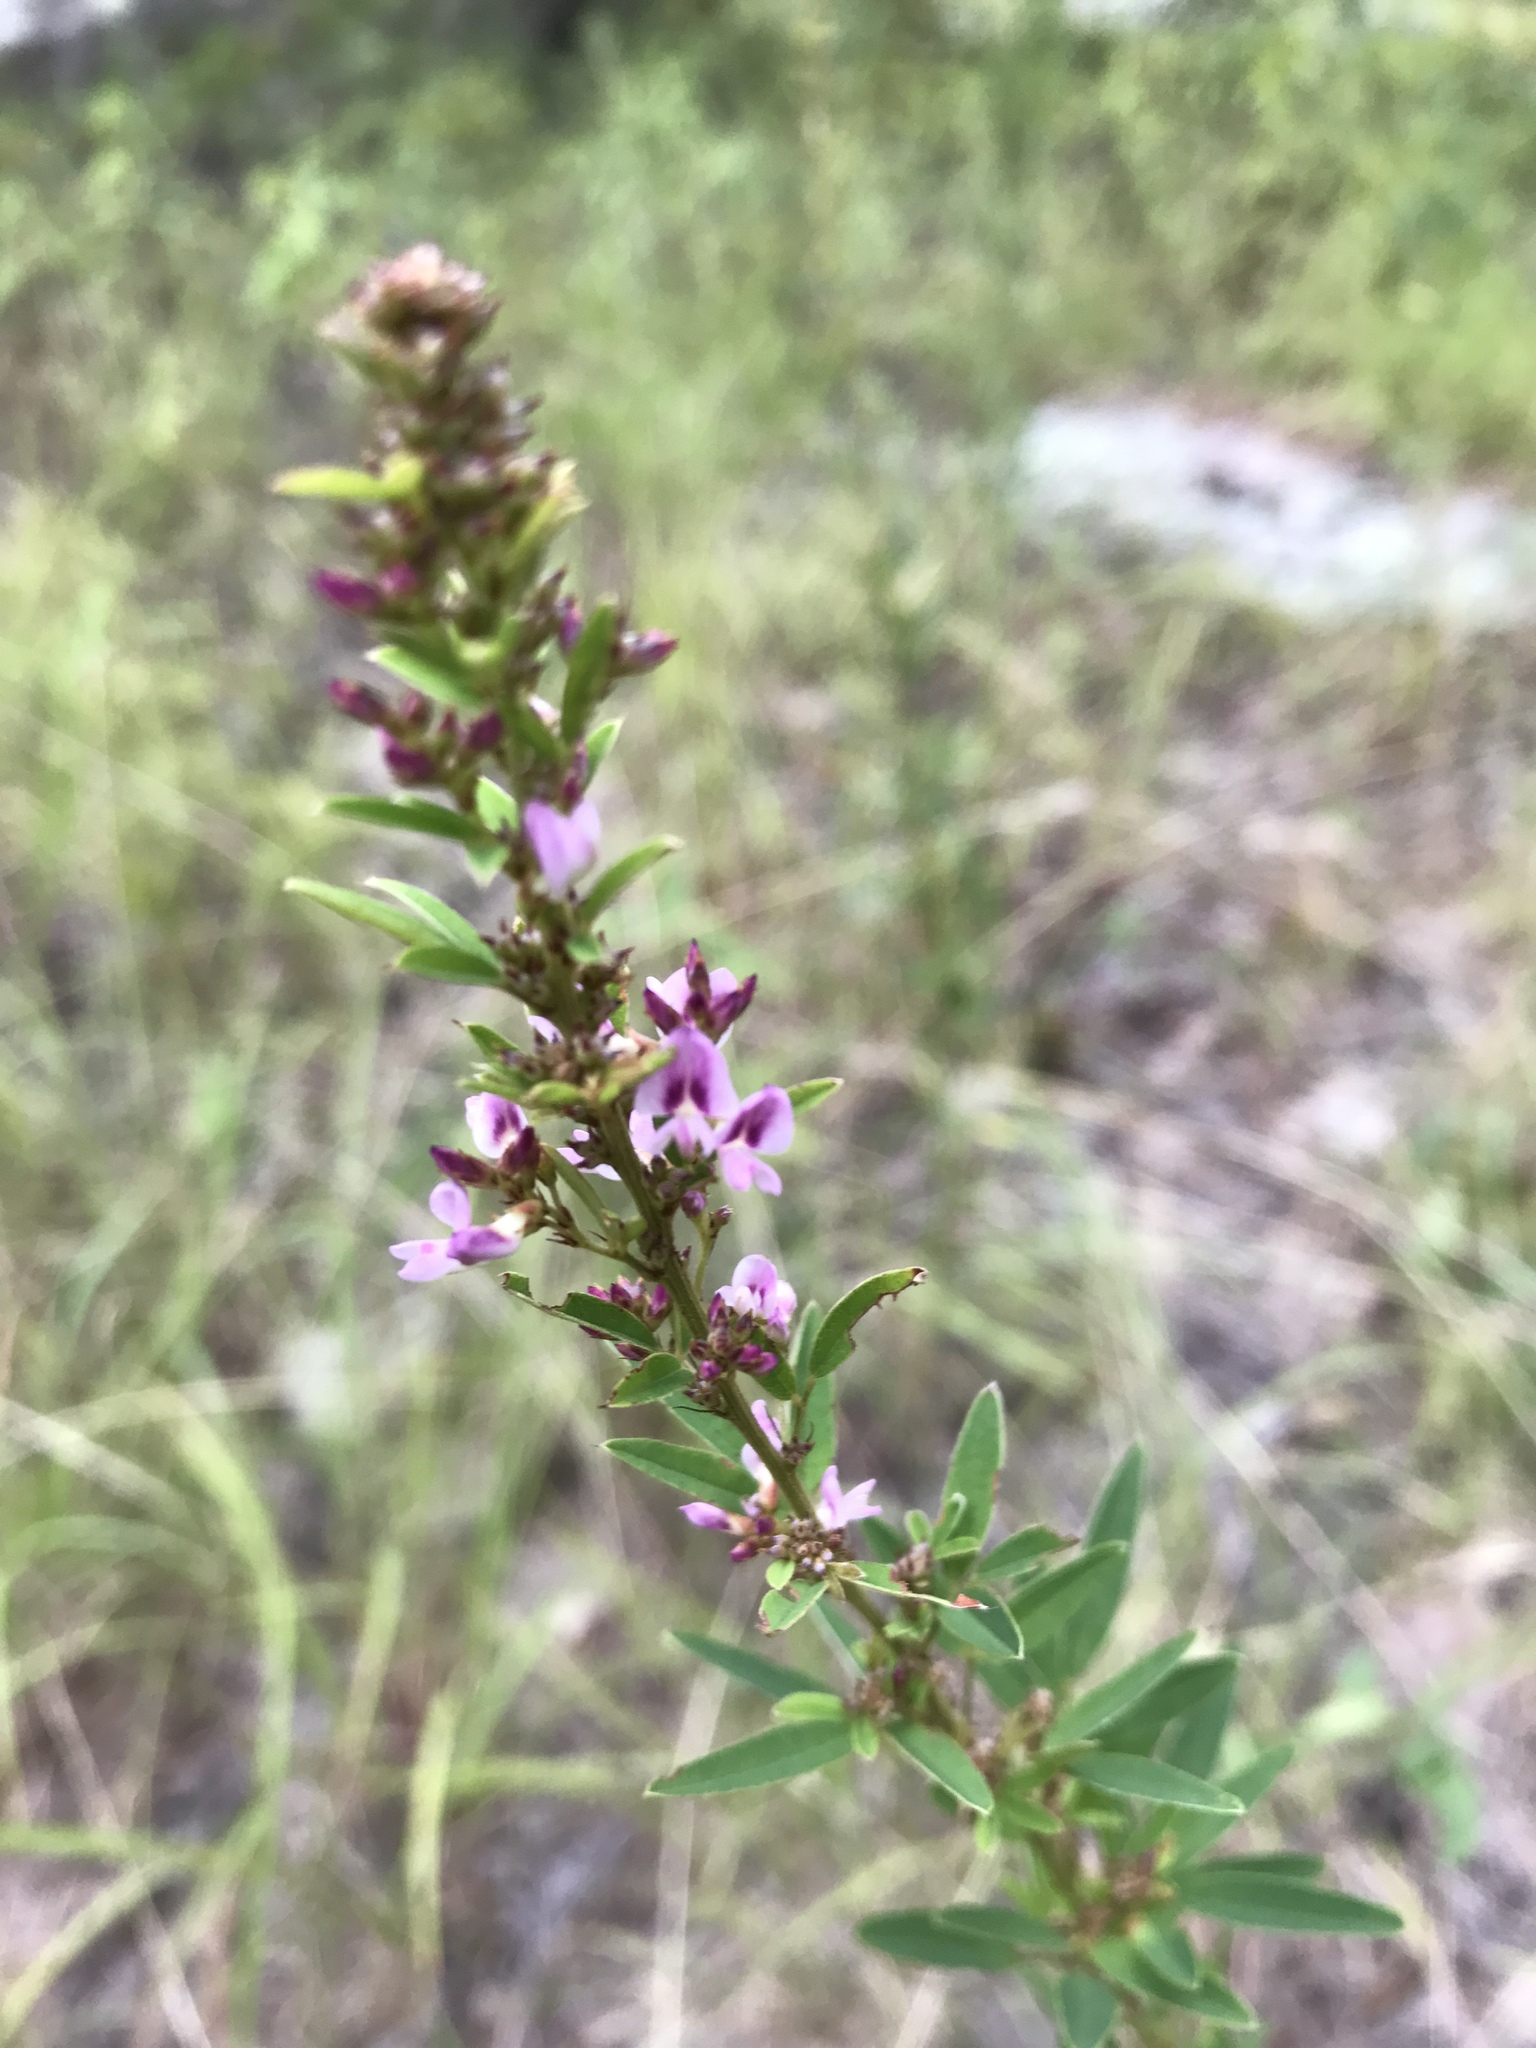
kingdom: Plantae
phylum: Tracheophyta
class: Magnoliopsida
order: Fabales
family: Fabaceae
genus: Lespedeza
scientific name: Lespedeza virginica
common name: Slender bush-clover
